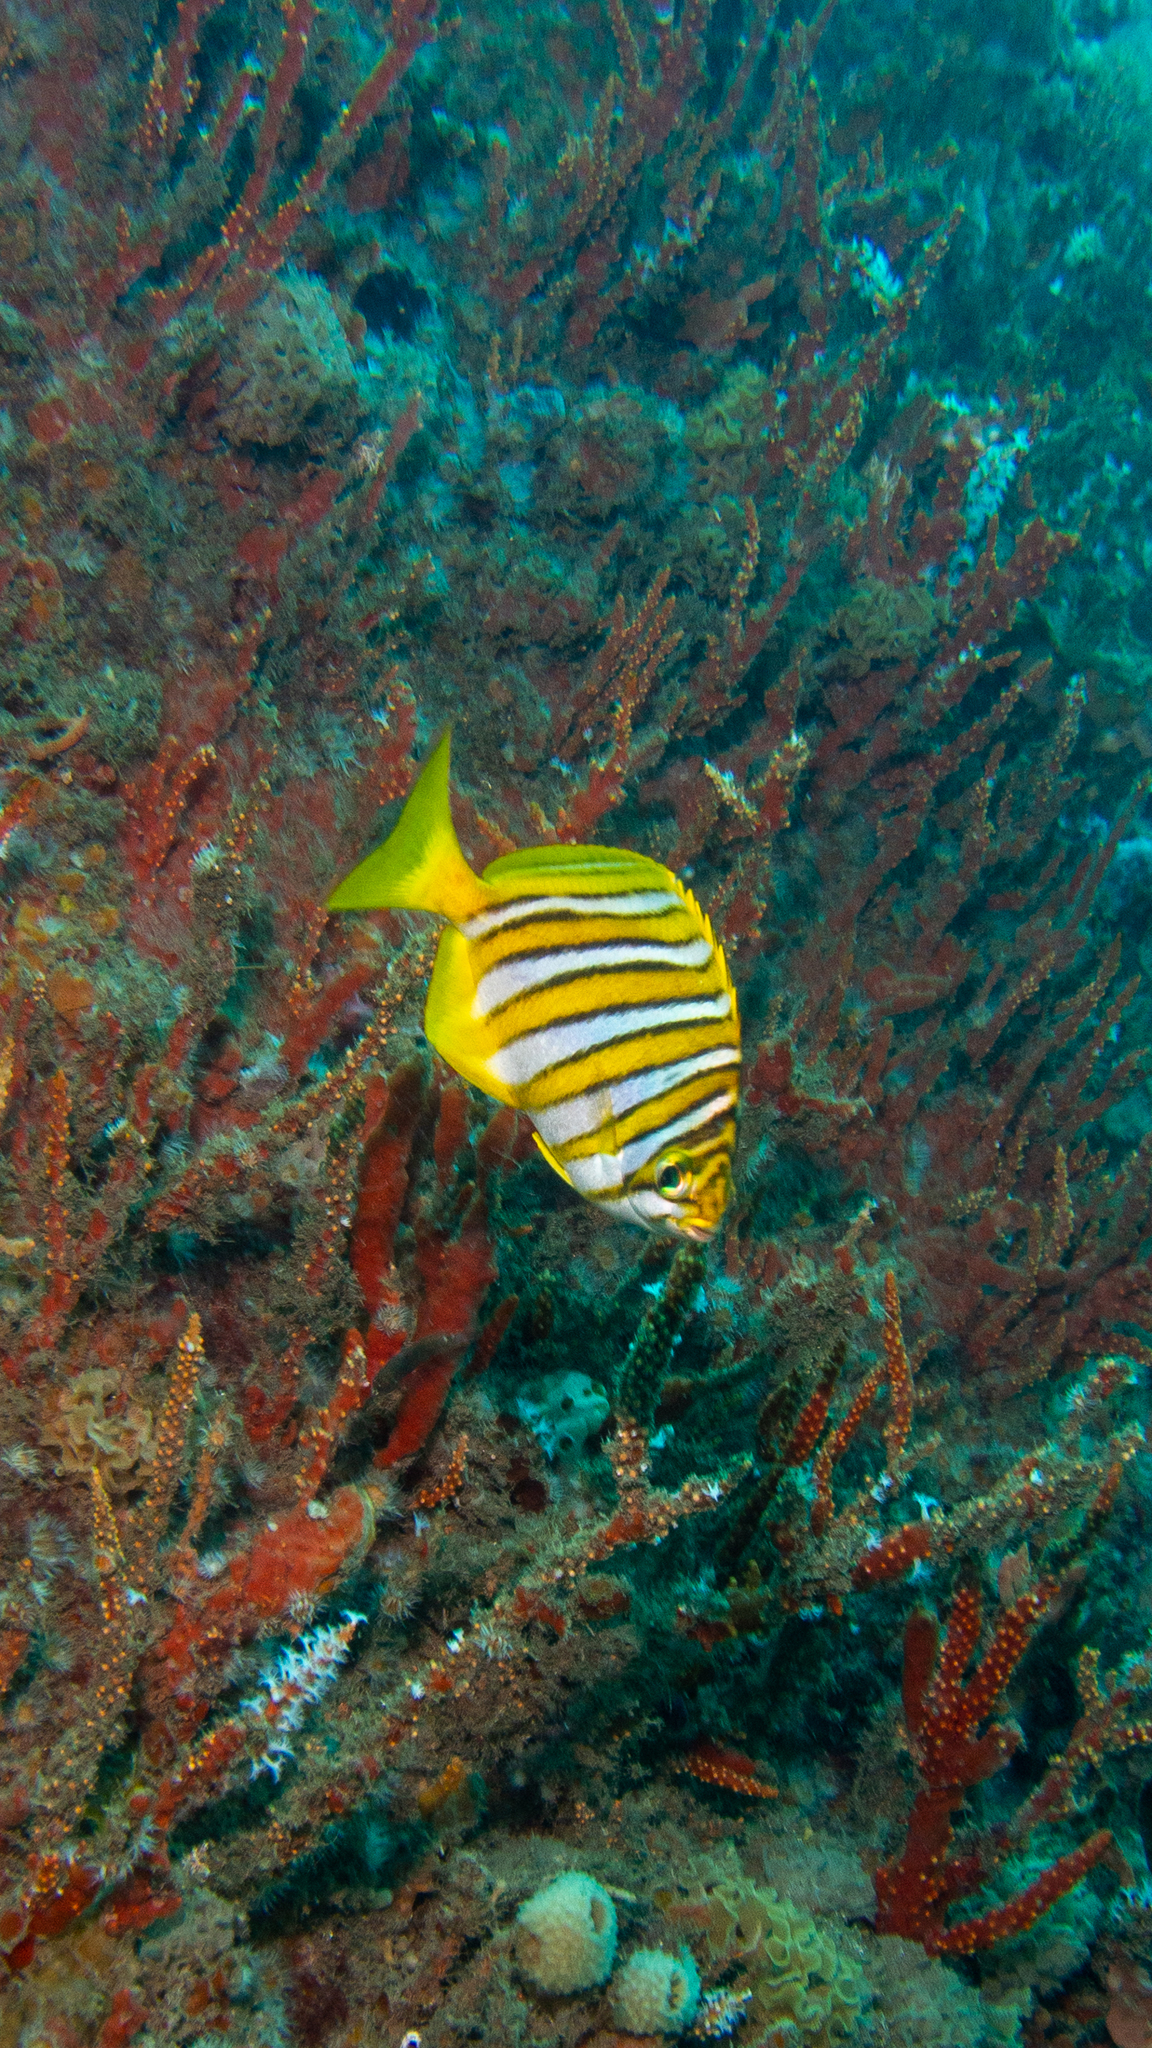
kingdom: Animalia
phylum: Chordata
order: Perciformes
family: Kyphosidae
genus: Neatypus
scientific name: Neatypus obliquus
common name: Western footballer
